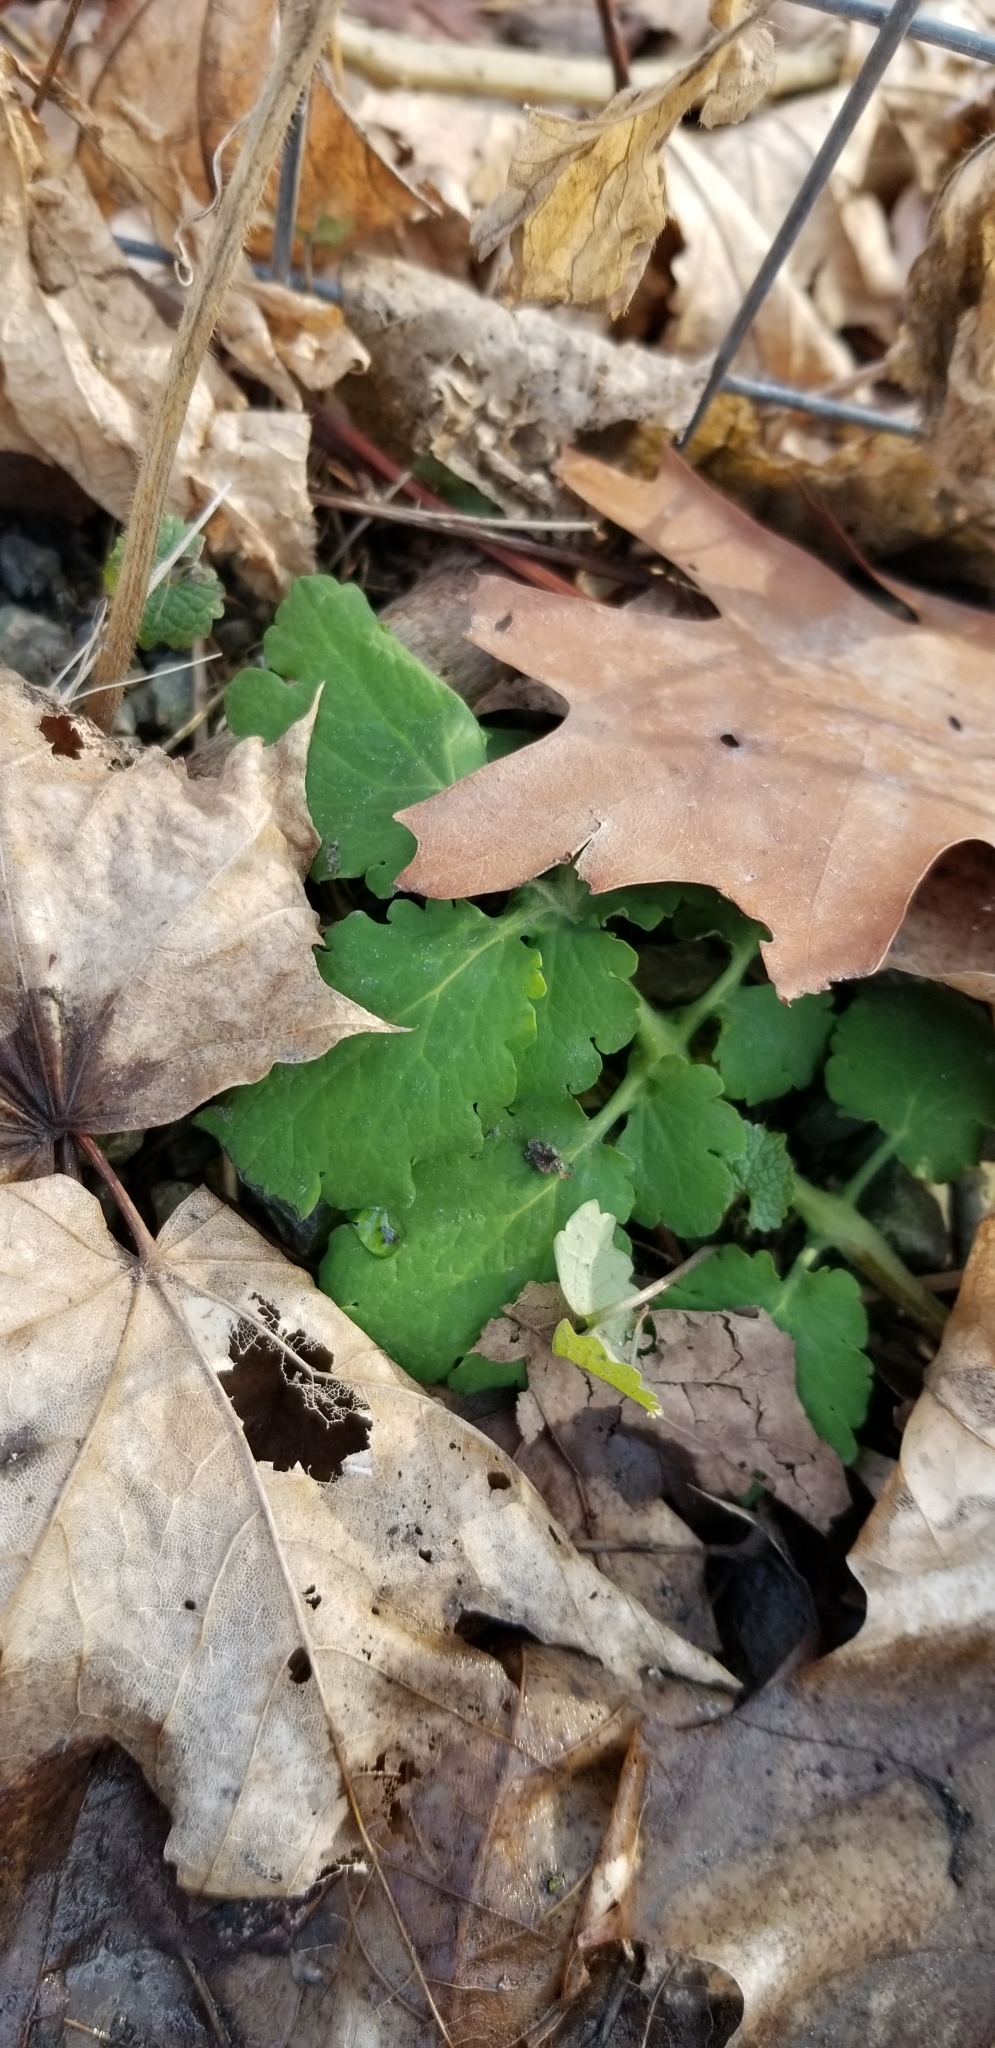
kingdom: Plantae
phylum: Tracheophyta
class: Magnoliopsida
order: Ranunculales
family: Papaveraceae
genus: Chelidonium
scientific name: Chelidonium majus
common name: Greater celandine
